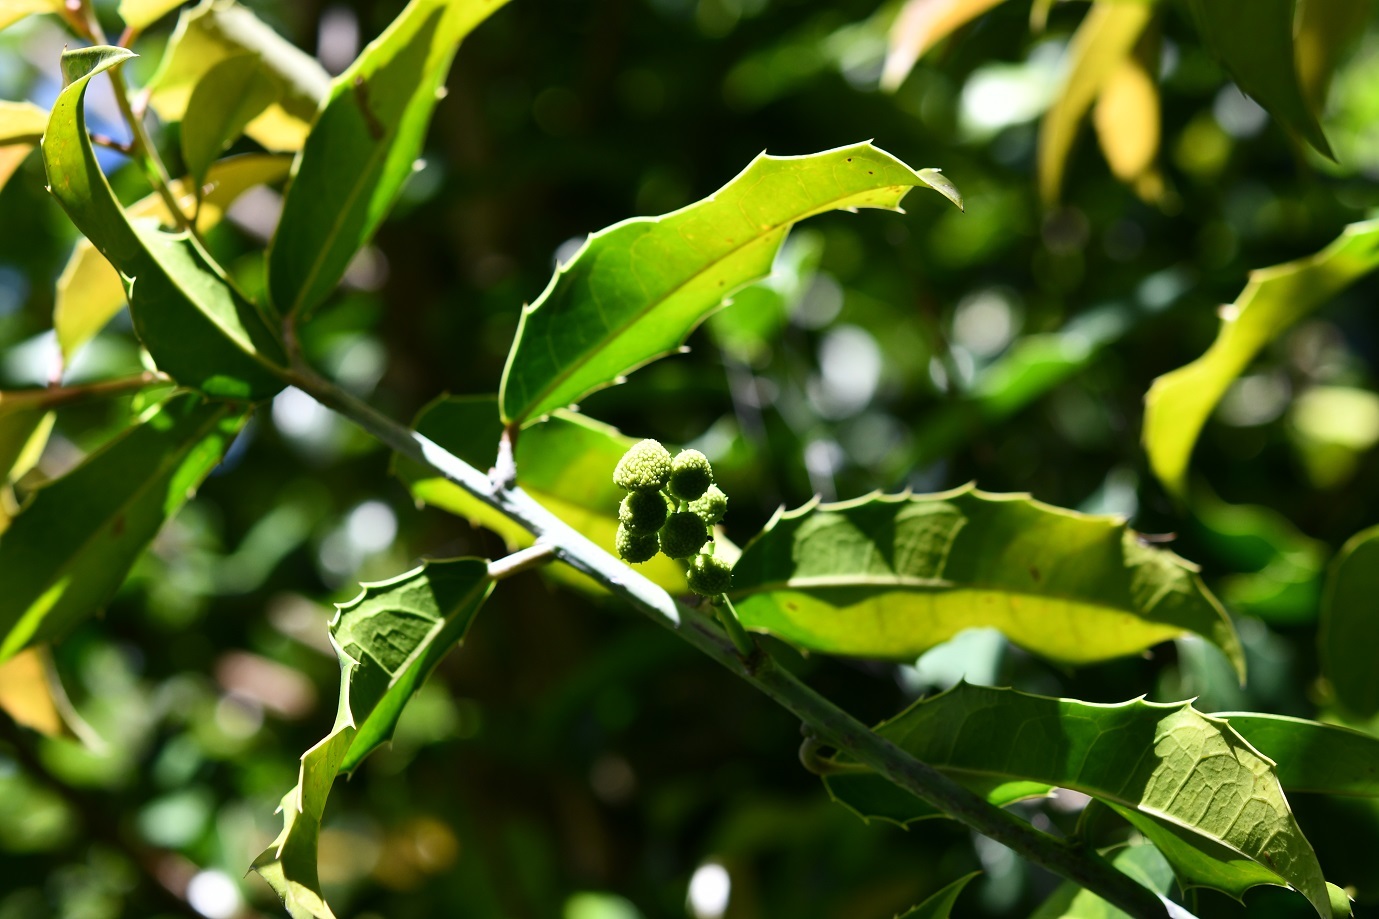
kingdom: Plantae
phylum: Tracheophyta
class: Magnoliopsida
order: Malpighiales
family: Salicaceae
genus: Olmediella
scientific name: Olmediella betschleriana
